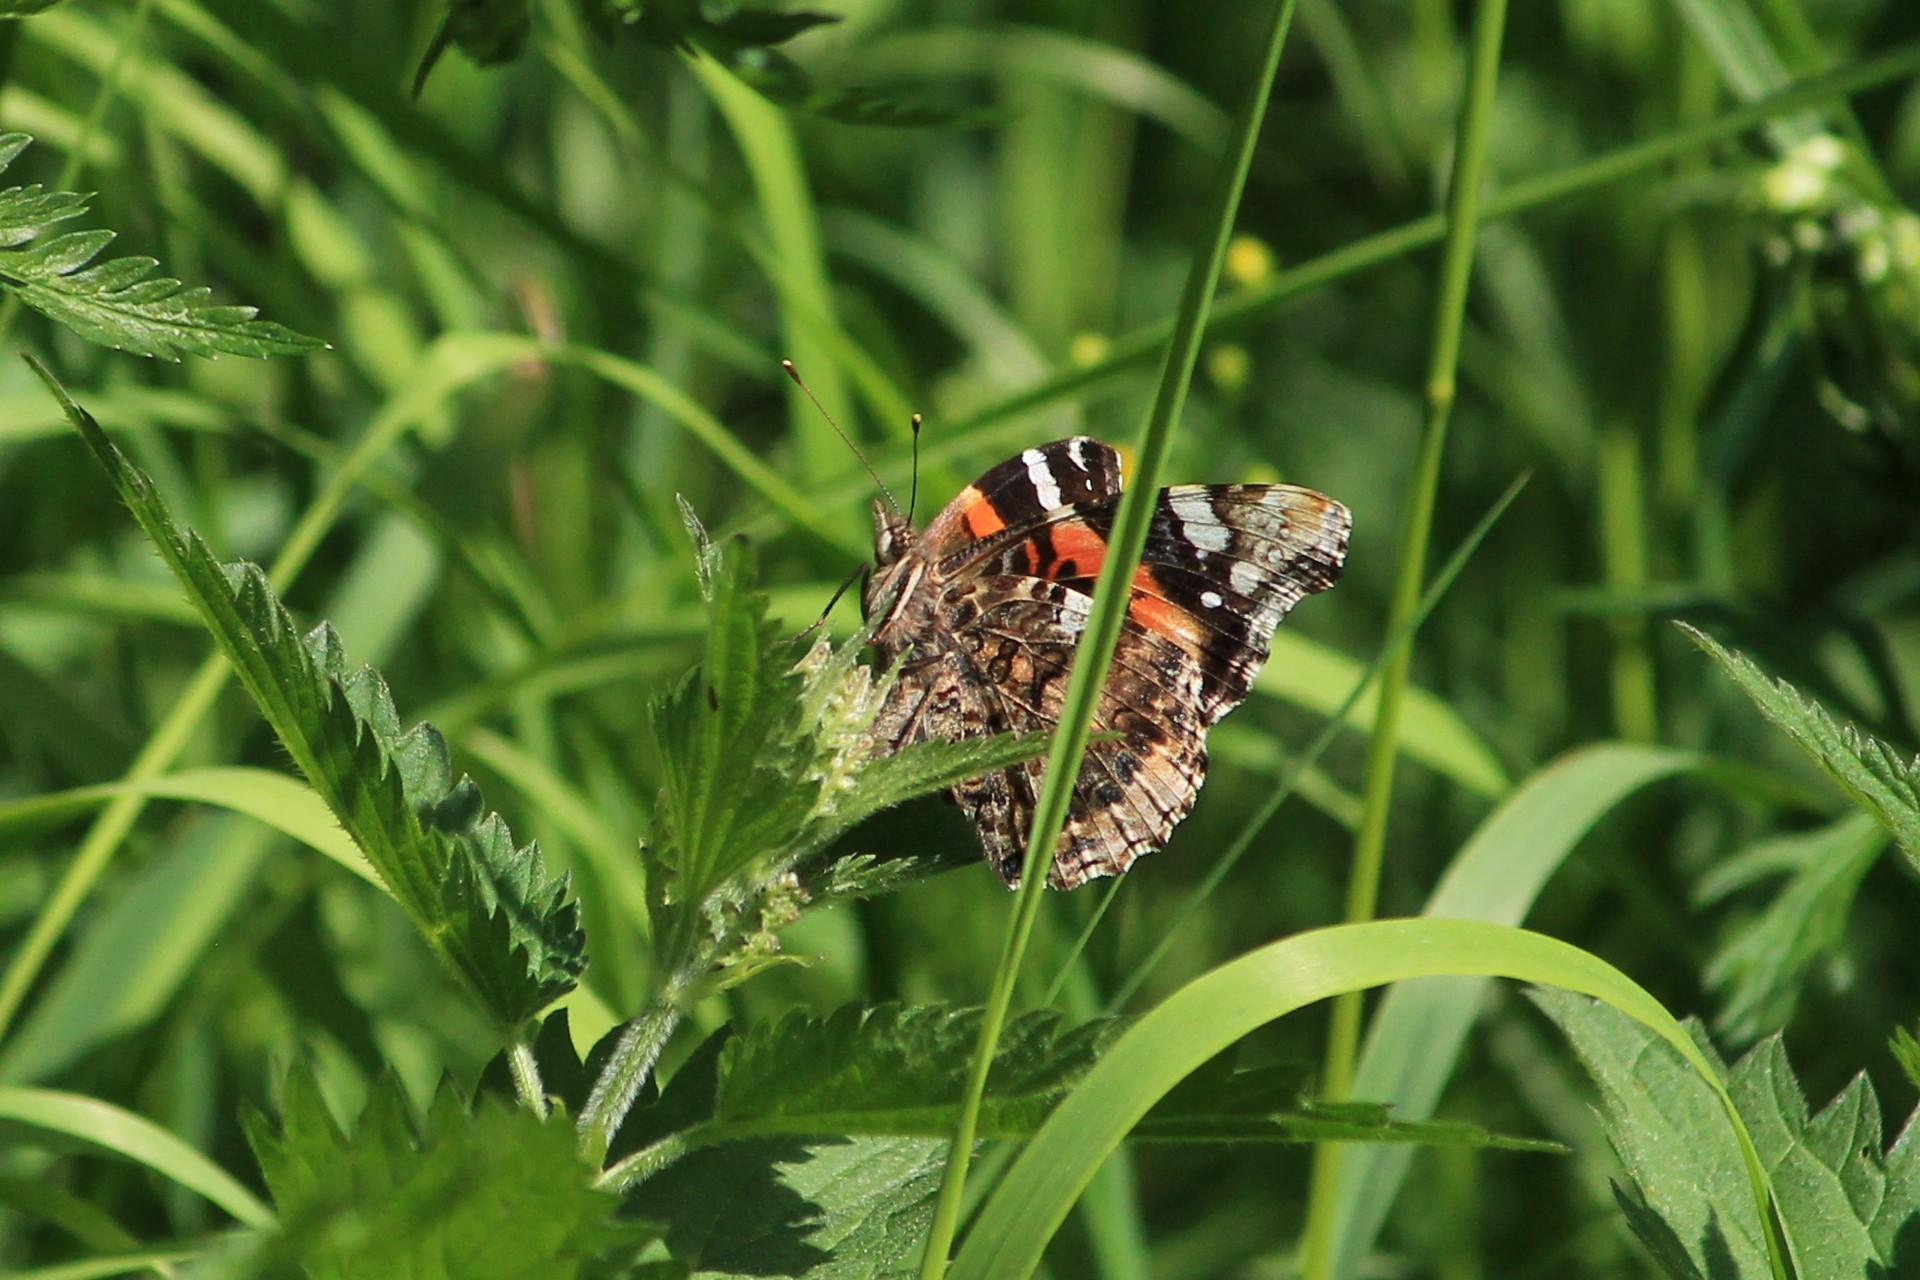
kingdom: Animalia
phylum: Arthropoda
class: Insecta
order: Lepidoptera
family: Nymphalidae
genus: Vanessa
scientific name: Vanessa atalanta
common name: Red admiral
